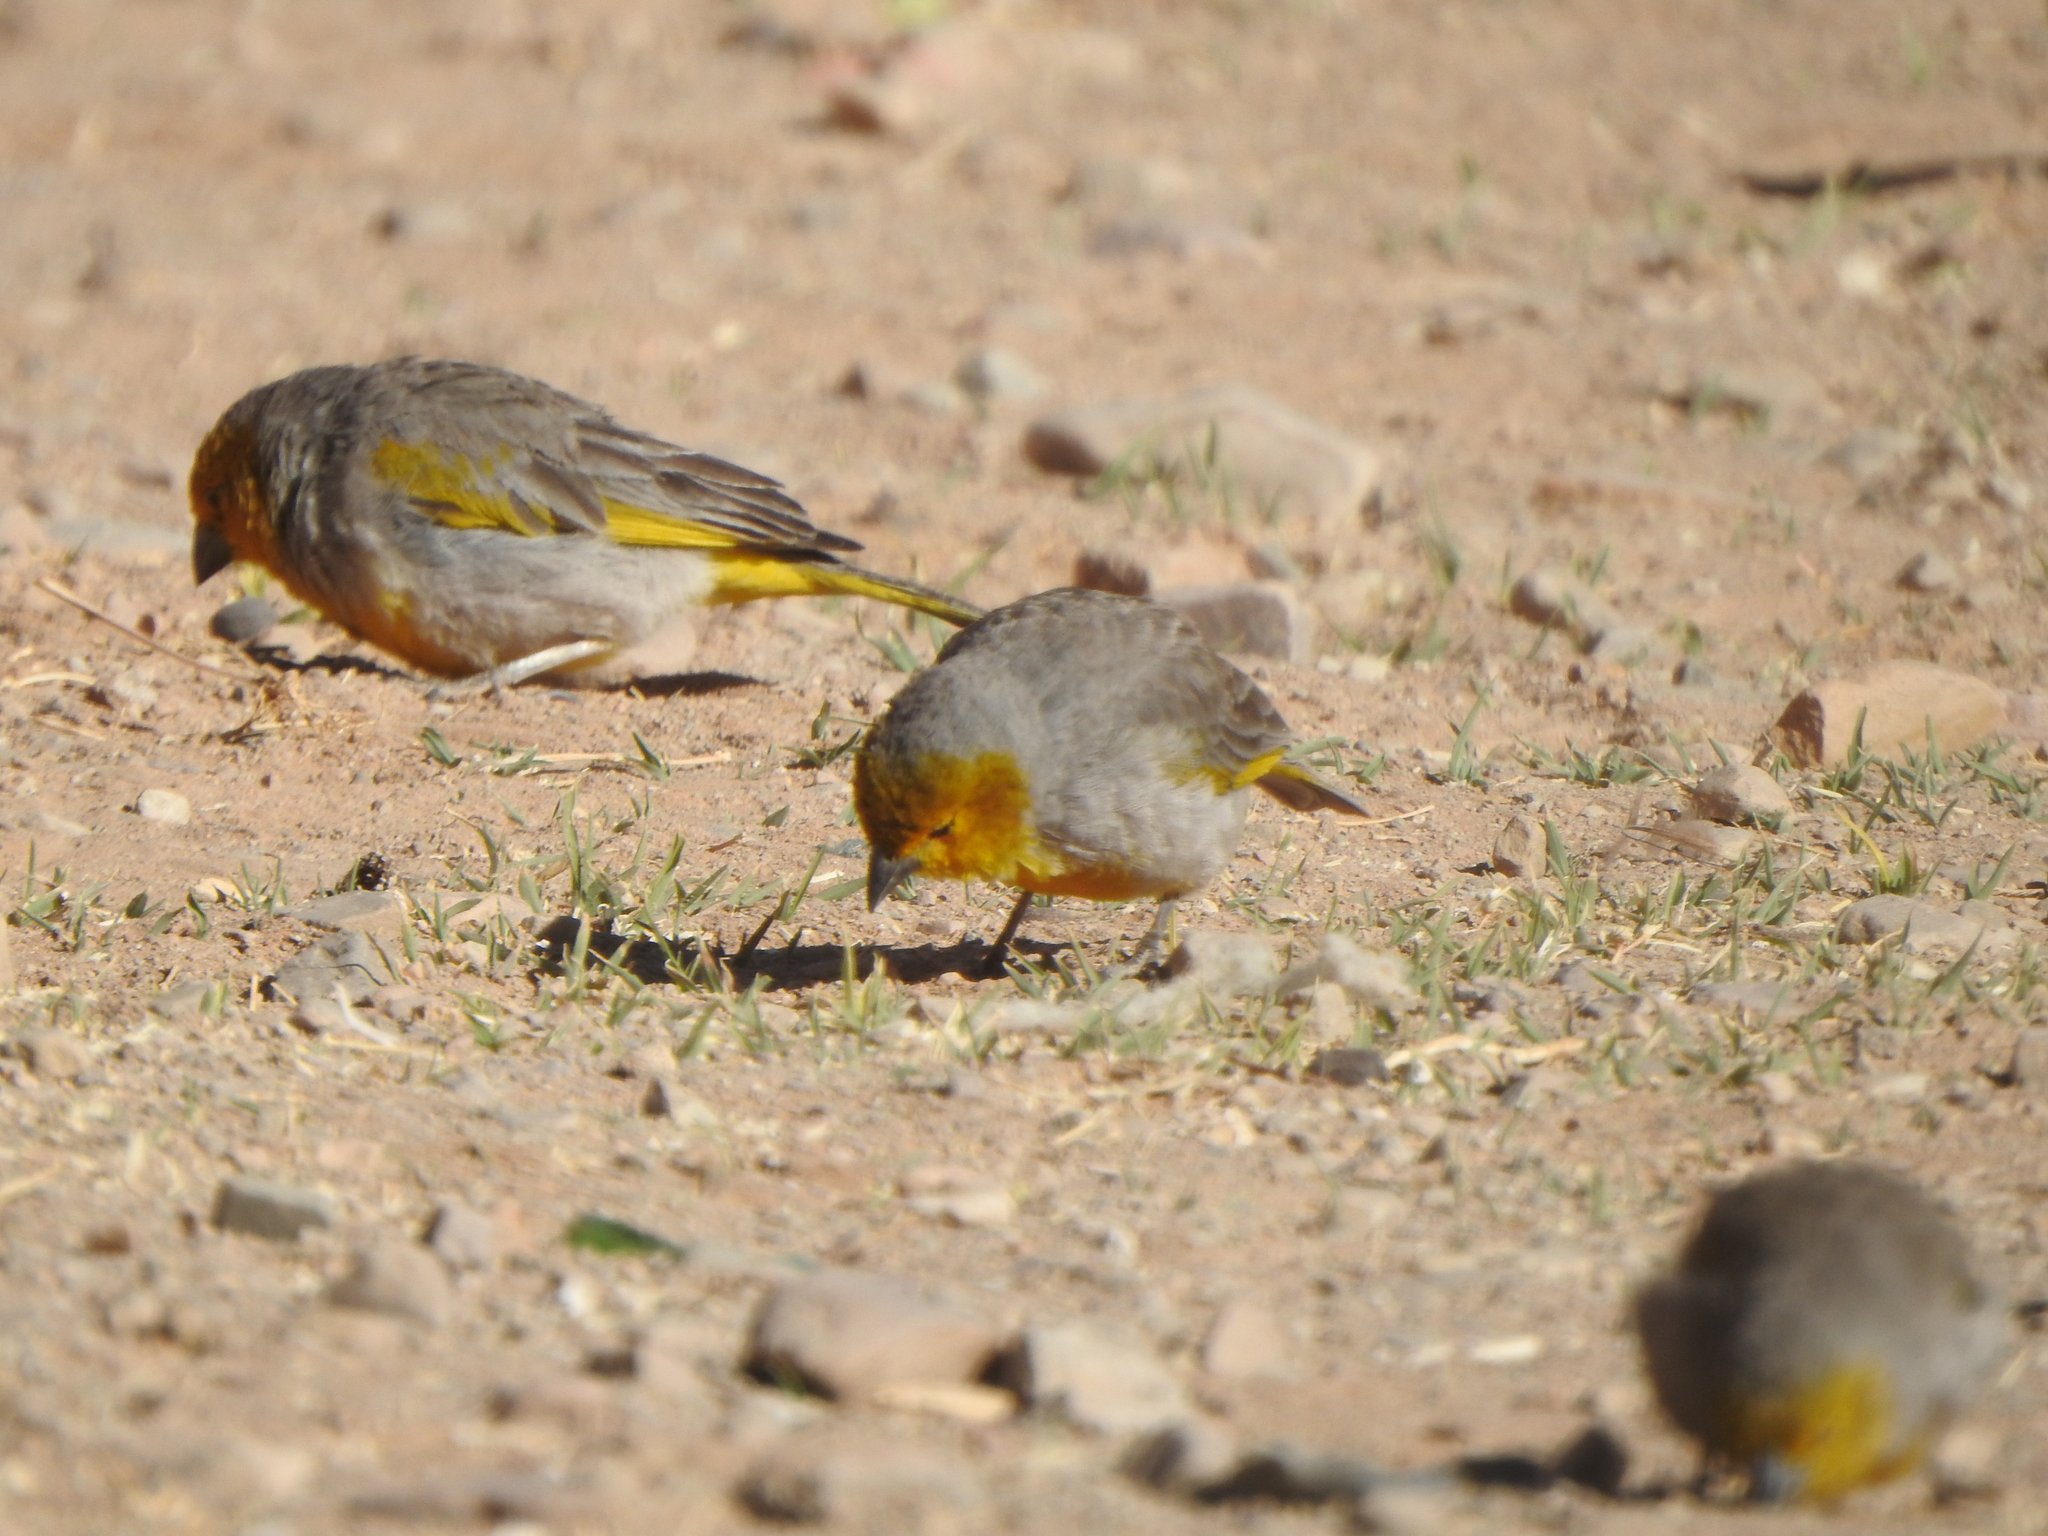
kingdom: Animalia
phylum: Chordata
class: Aves
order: Passeriformes
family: Thraupidae
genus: Sicalis
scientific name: Sicalis luteocephala
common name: Citron-headed yellow finch
